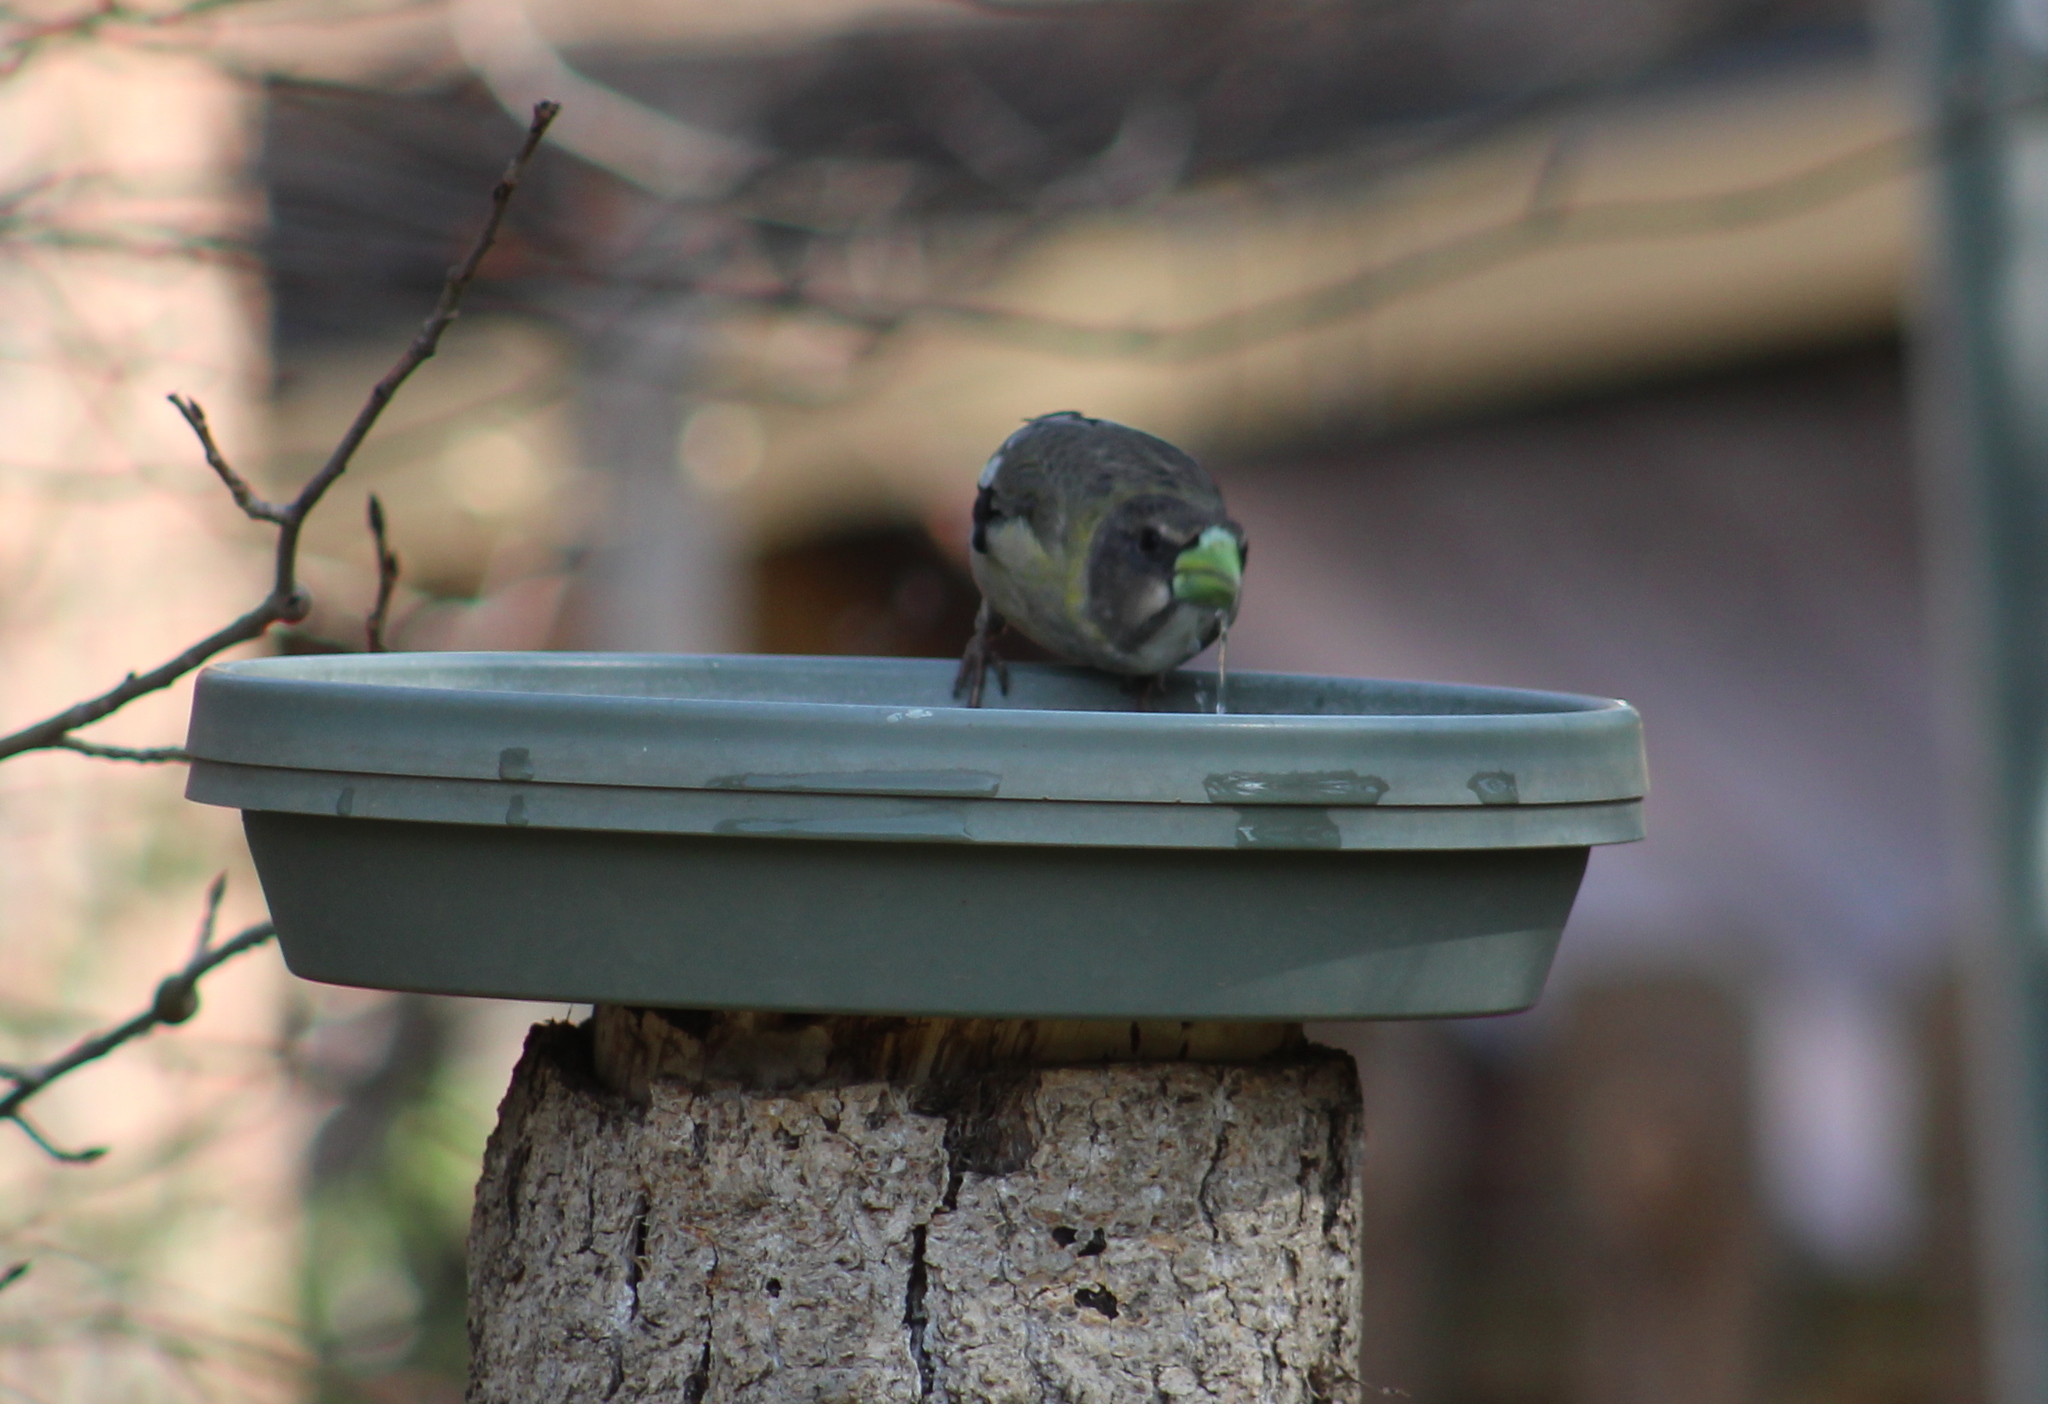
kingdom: Animalia
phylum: Chordata
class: Aves
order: Passeriformes
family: Fringillidae
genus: Hesperiphona
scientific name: Hesperiphona vespertina
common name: Evening grosbeak
